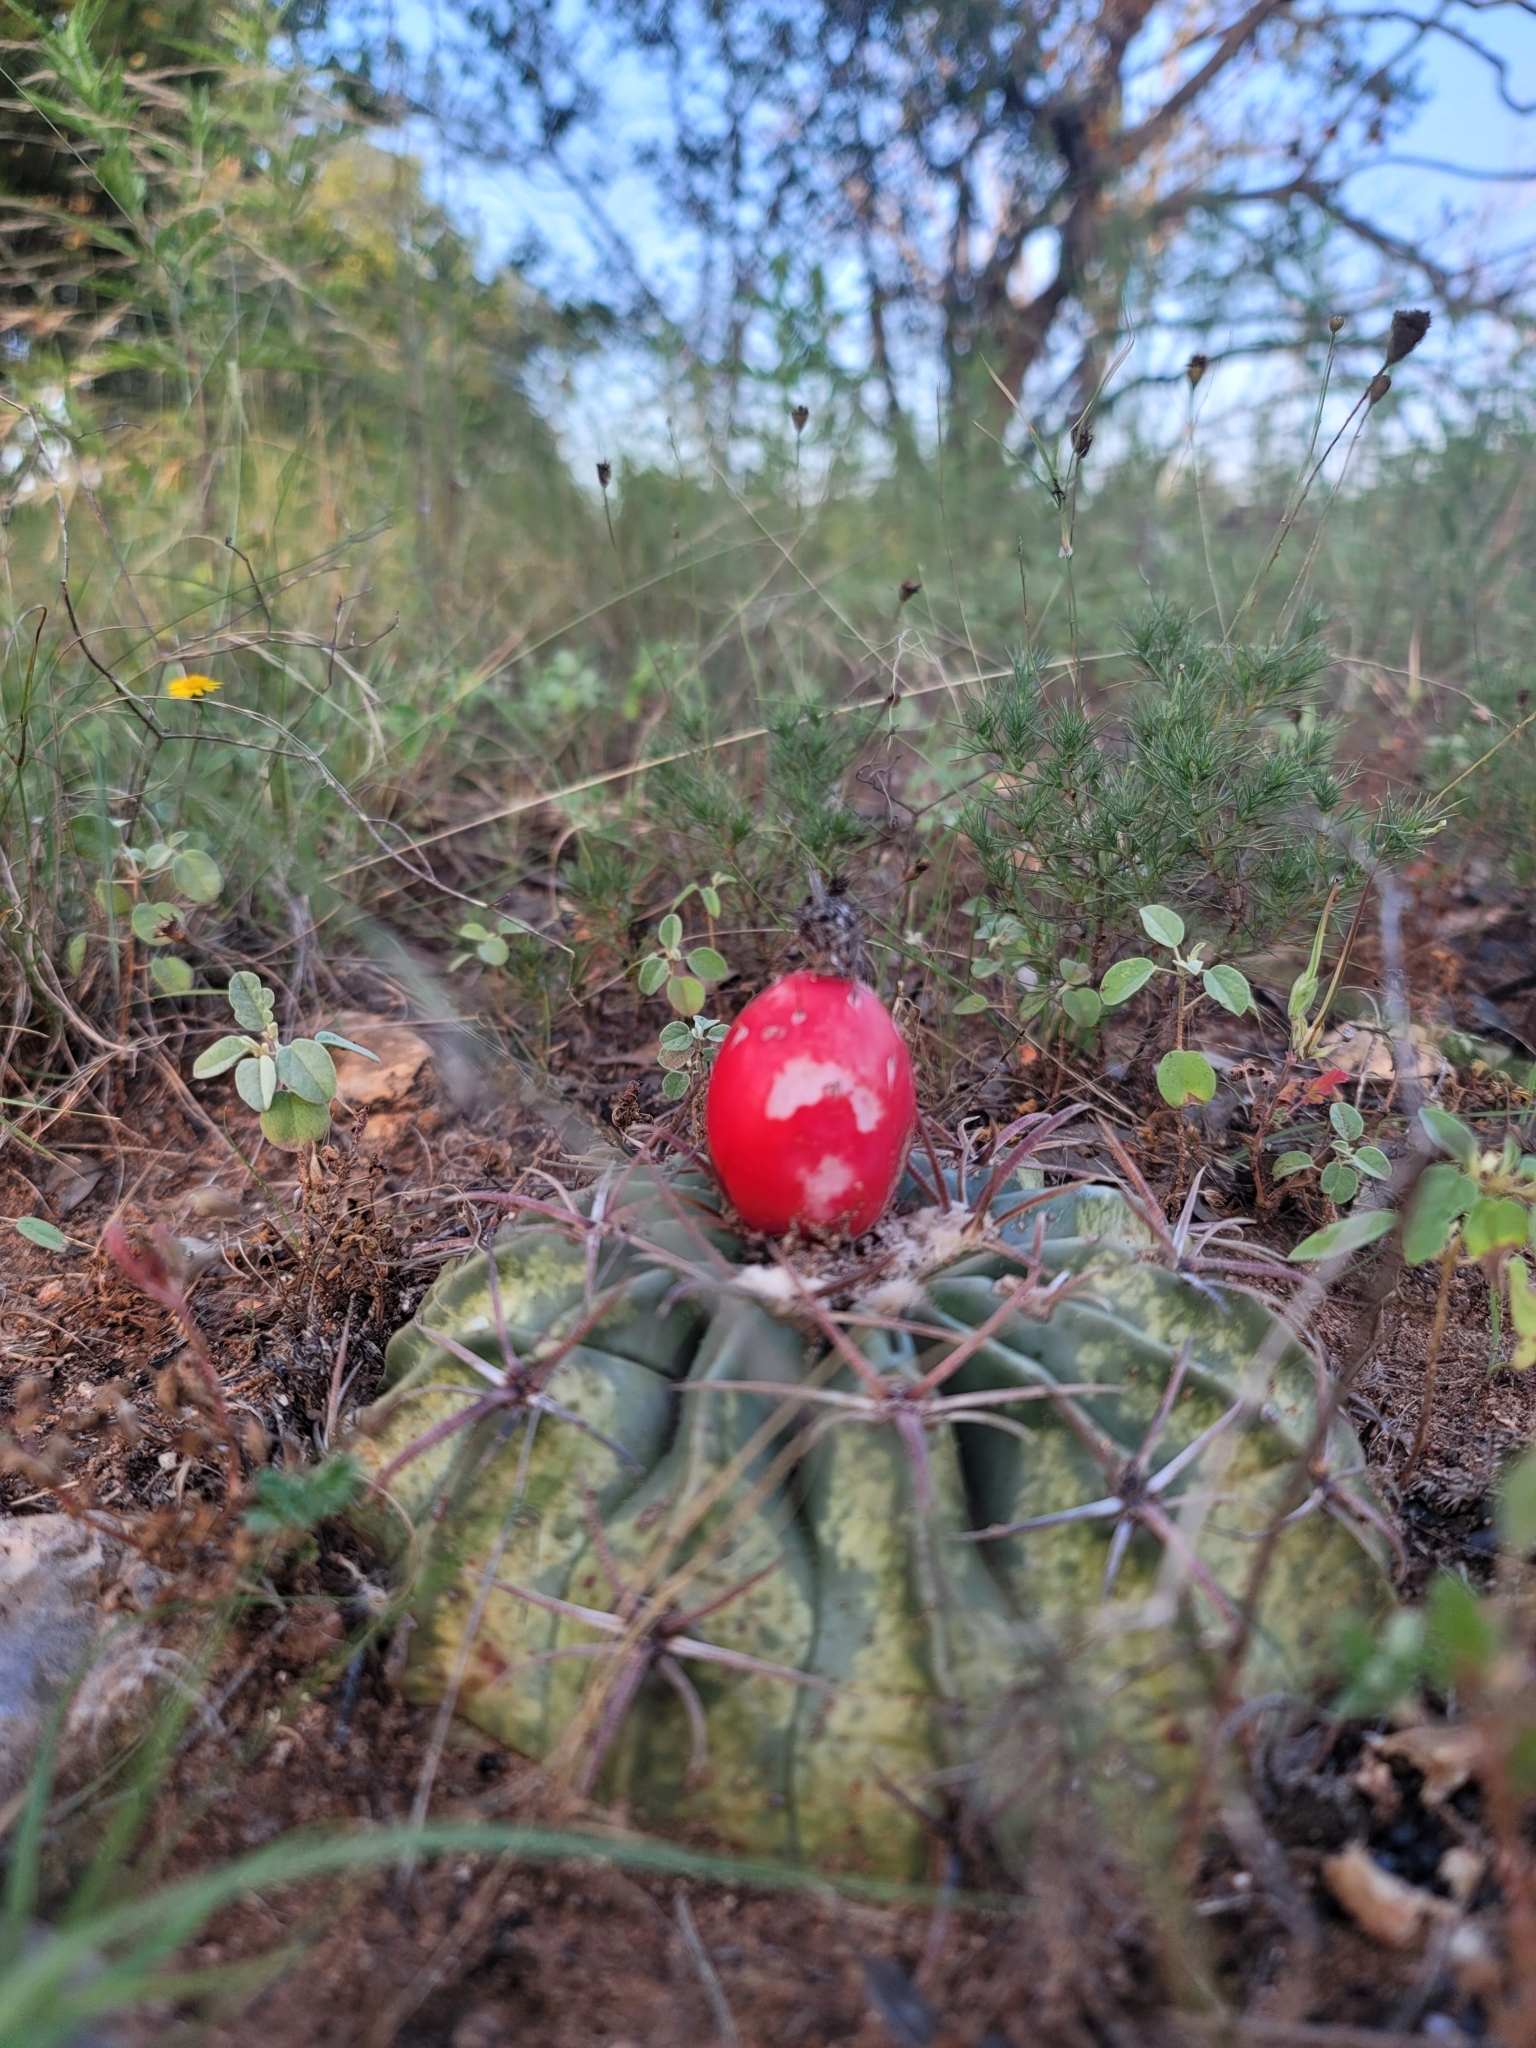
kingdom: Plantae
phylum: Tracheophyta
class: Magnoliopsida
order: Caryophyllales
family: Cactaceae
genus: Echinocactus
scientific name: Echinocactus texensis
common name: Devil's pincushion
